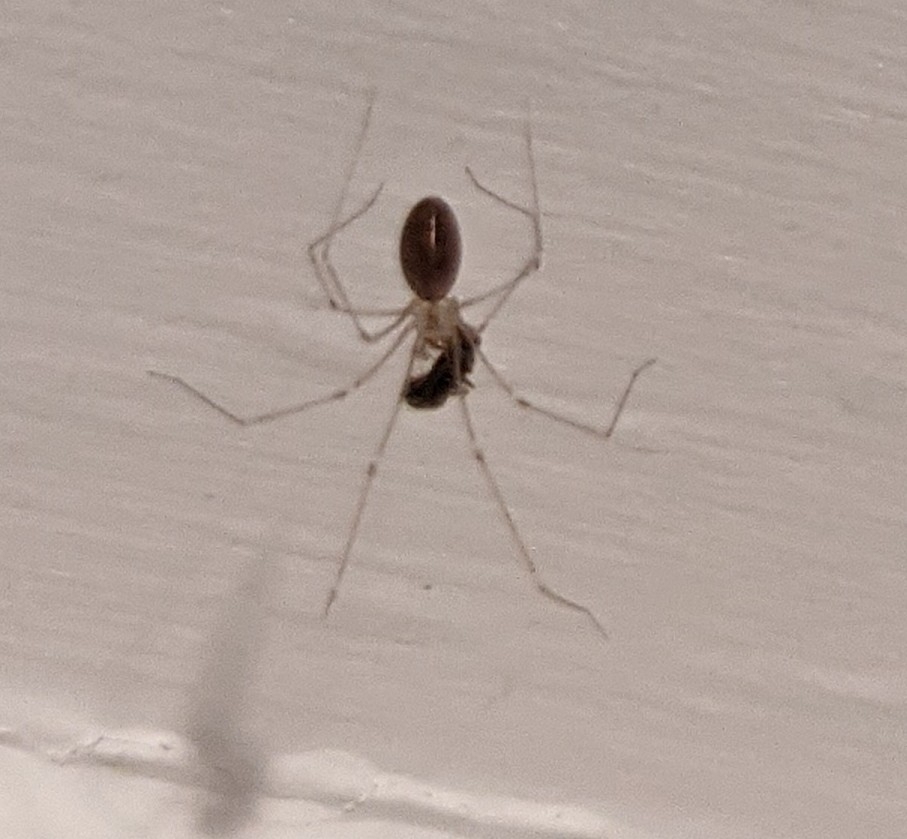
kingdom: Animalia
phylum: Arthropoda
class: Arachnida
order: Araneae
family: Pholcidae
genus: Pholcus
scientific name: Pholcus phalangioides
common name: Longbodied cellar spider
